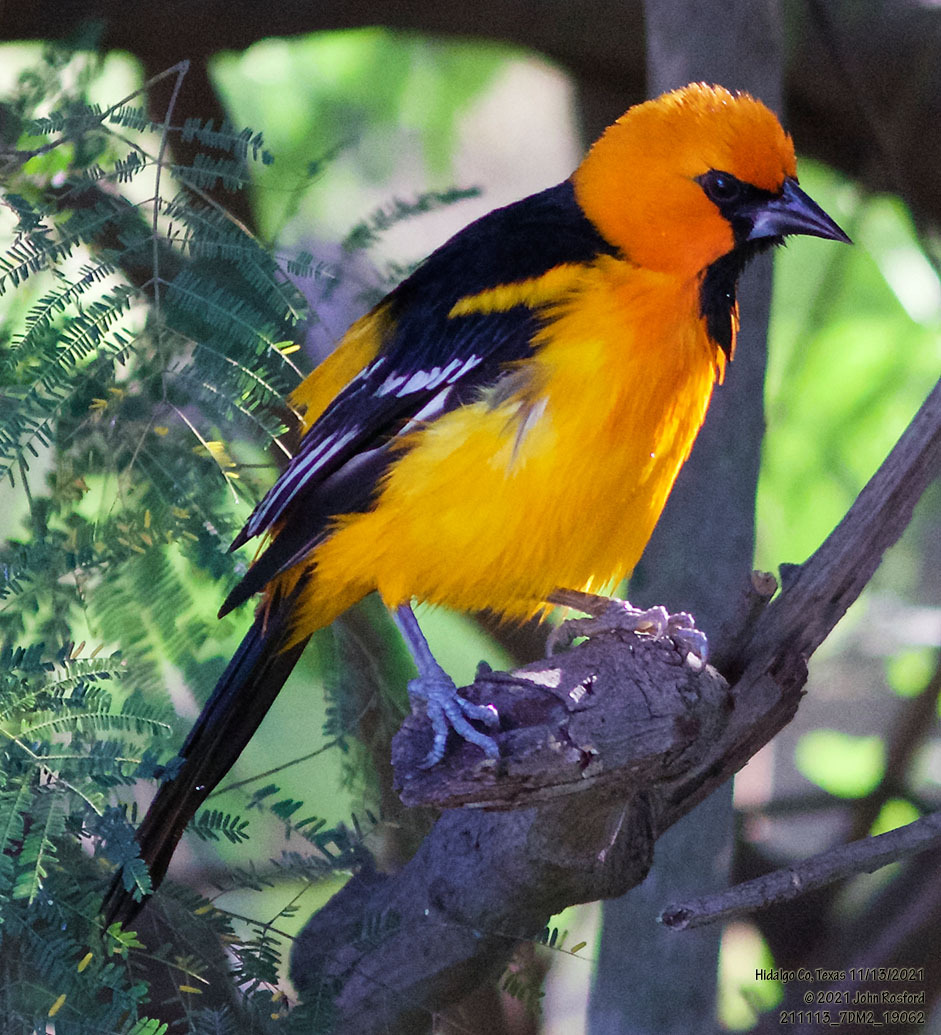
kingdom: Animalia
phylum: Chordata
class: Aves
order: Passeriformes
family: Icteridae
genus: Icterus
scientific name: Icterus gularis
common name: Altamira oriole
